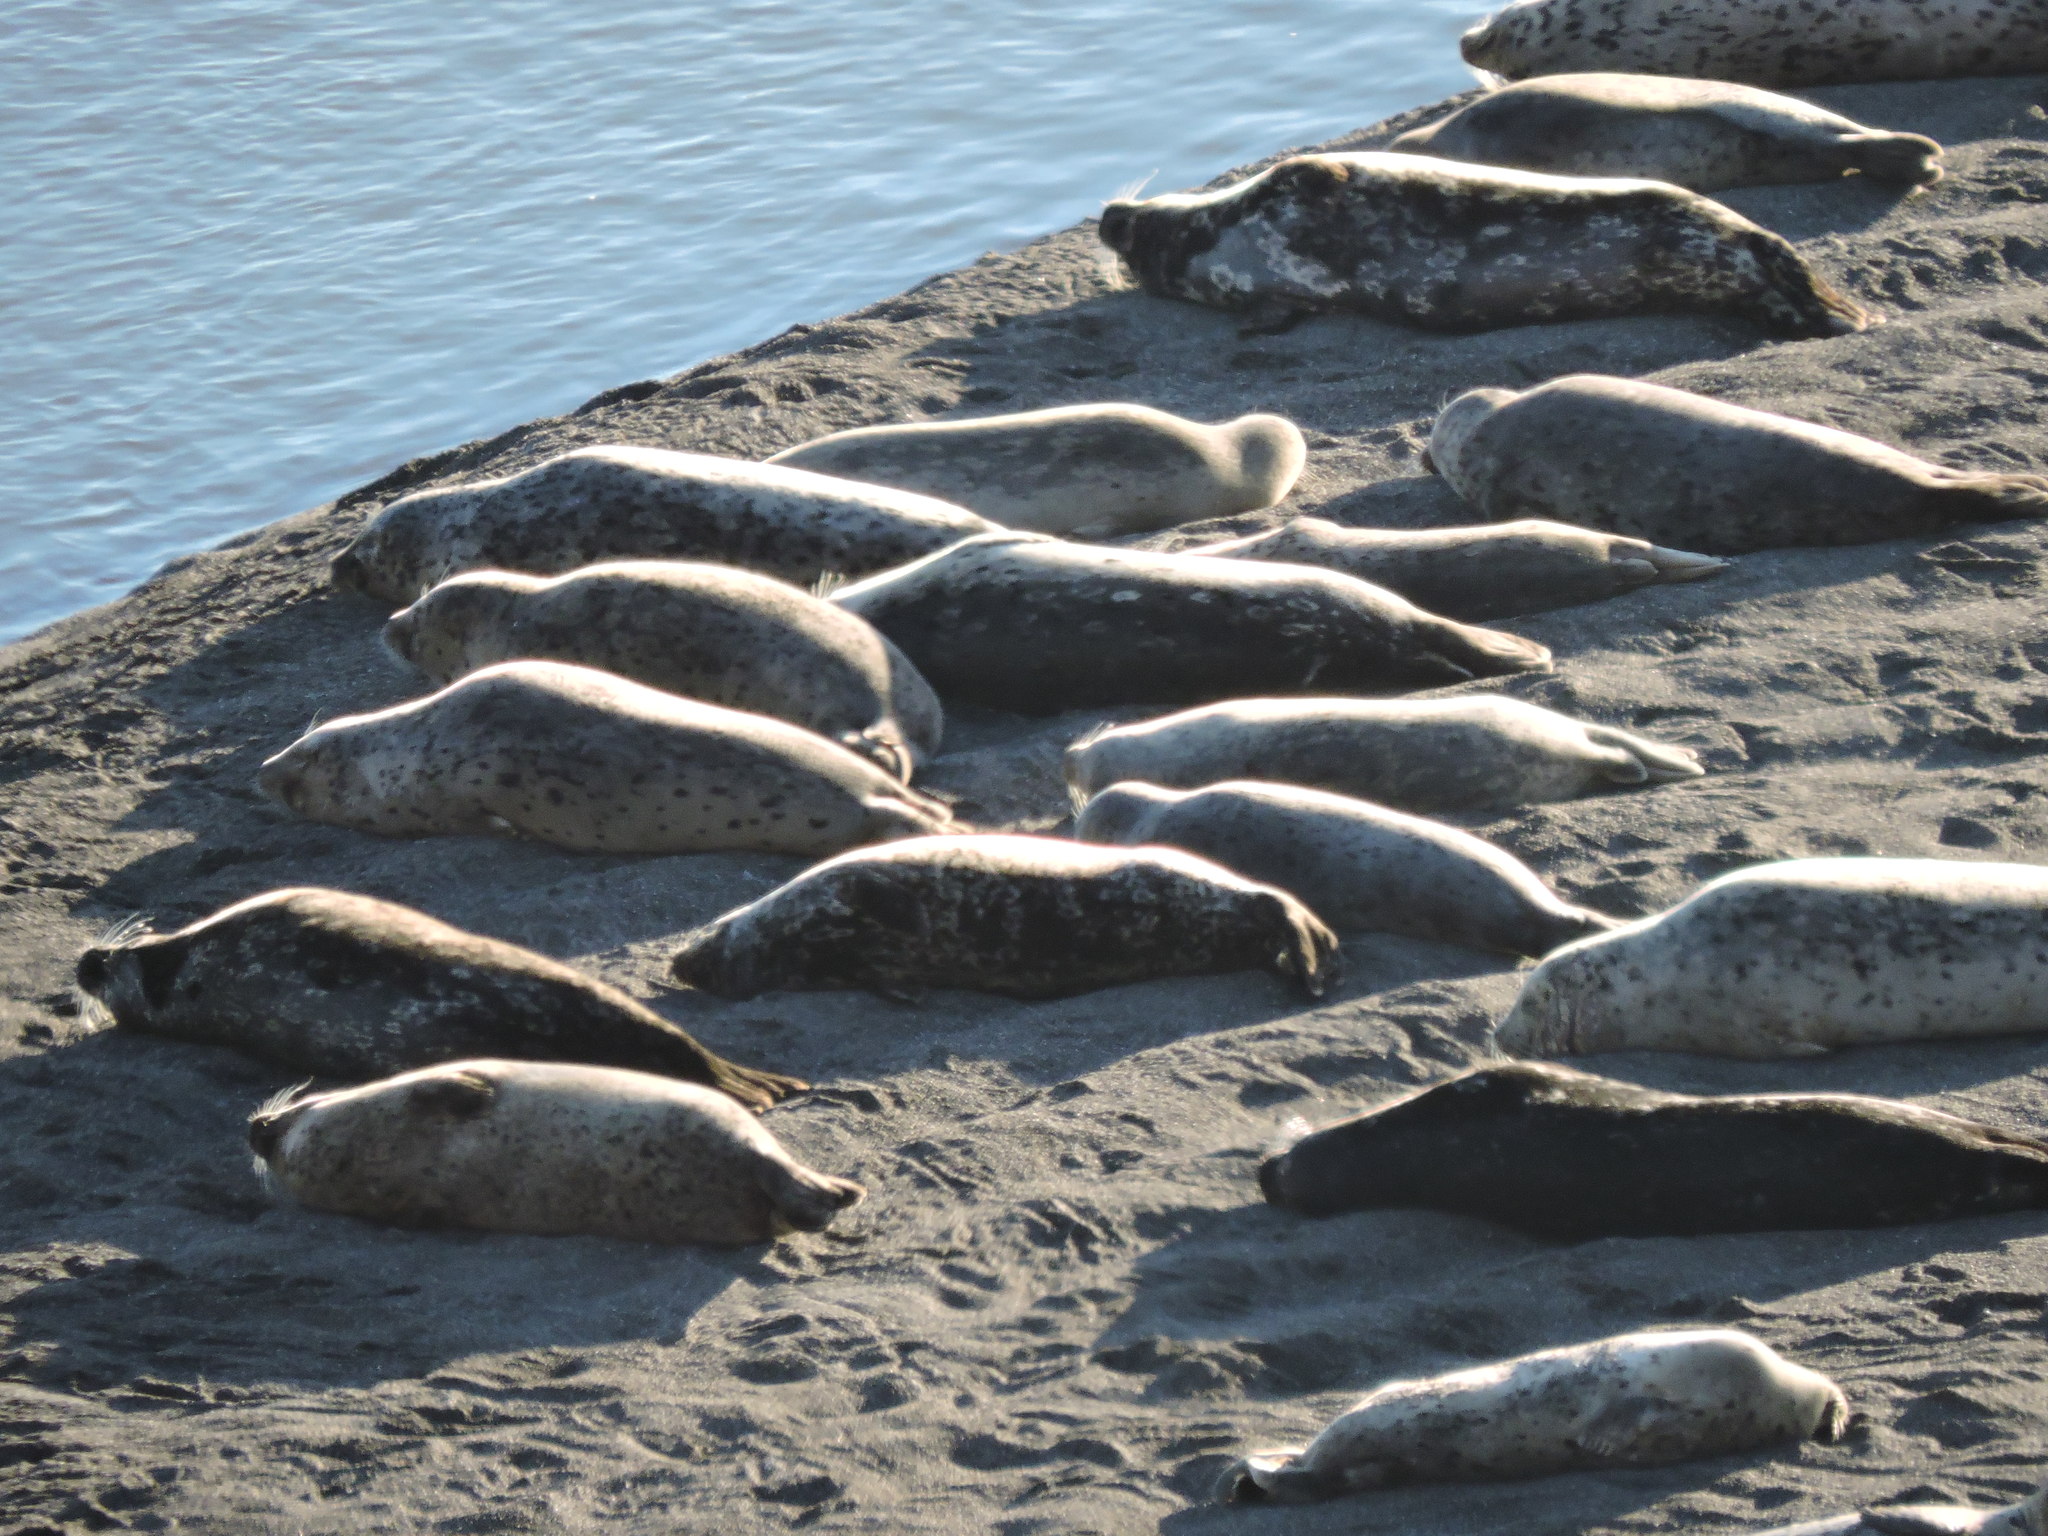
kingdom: Animalia
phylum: Chordata
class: Mammalia
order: Carnivora
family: Phocidae
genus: Phoca
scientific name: Phoca vitulina
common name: Harbor seal
